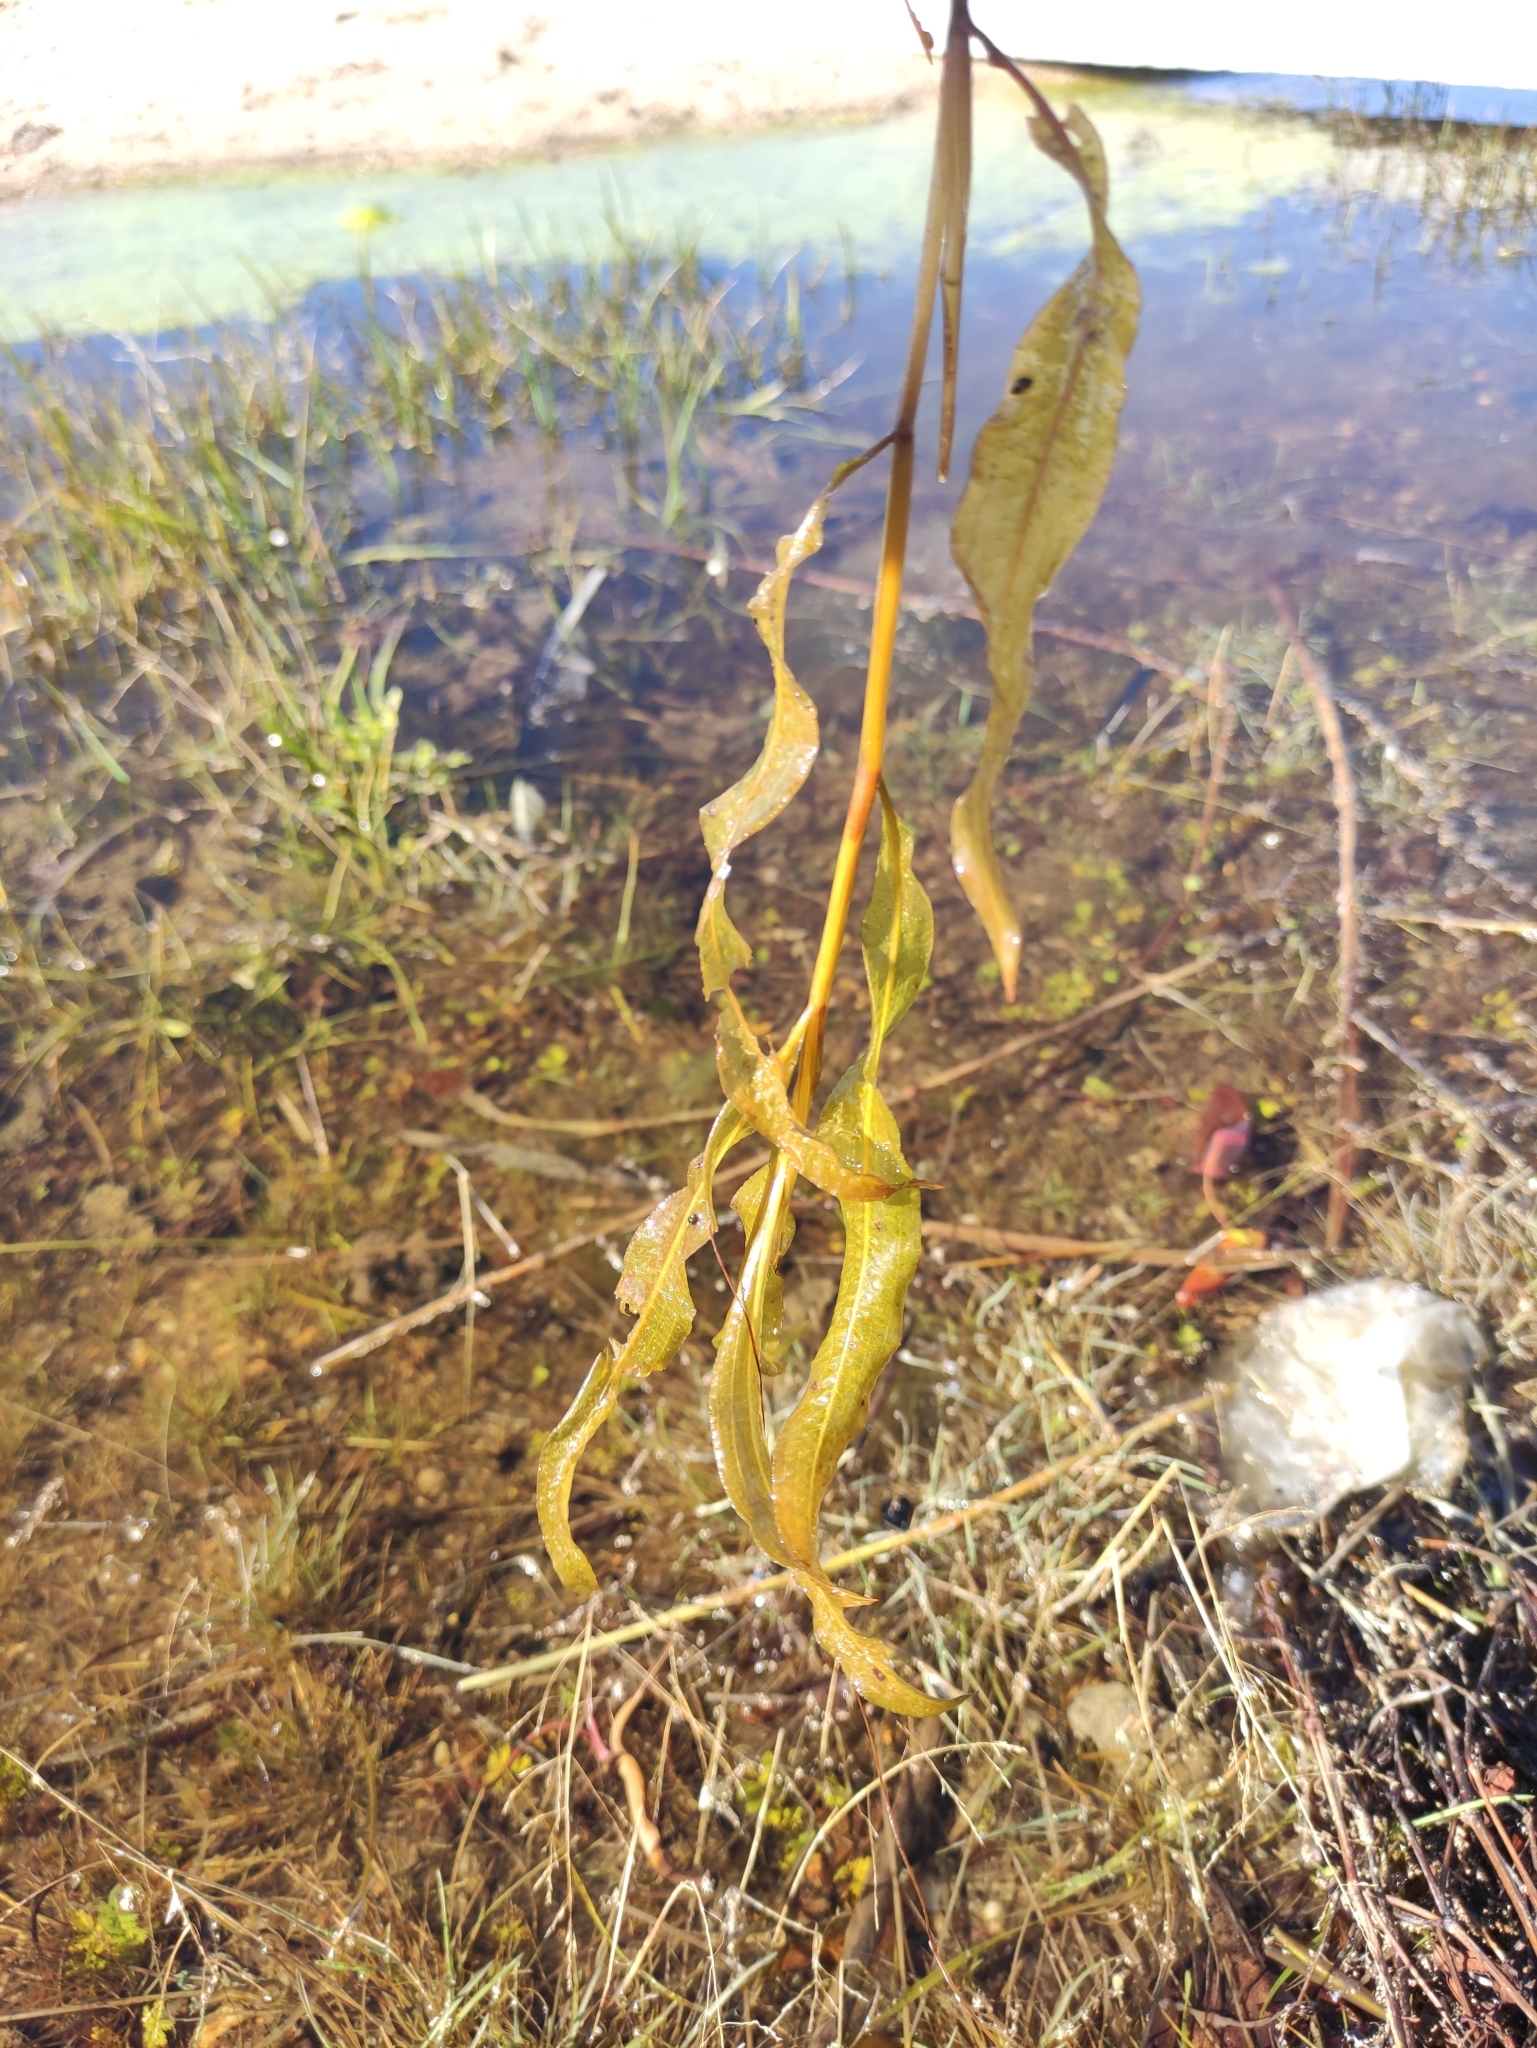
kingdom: Plantae
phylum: Tracheophyta
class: Liliopsida
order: Alismatales
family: Potamogetonaceae
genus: Potamogeton
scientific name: Potamogeton lucens
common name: Shining pondweed
